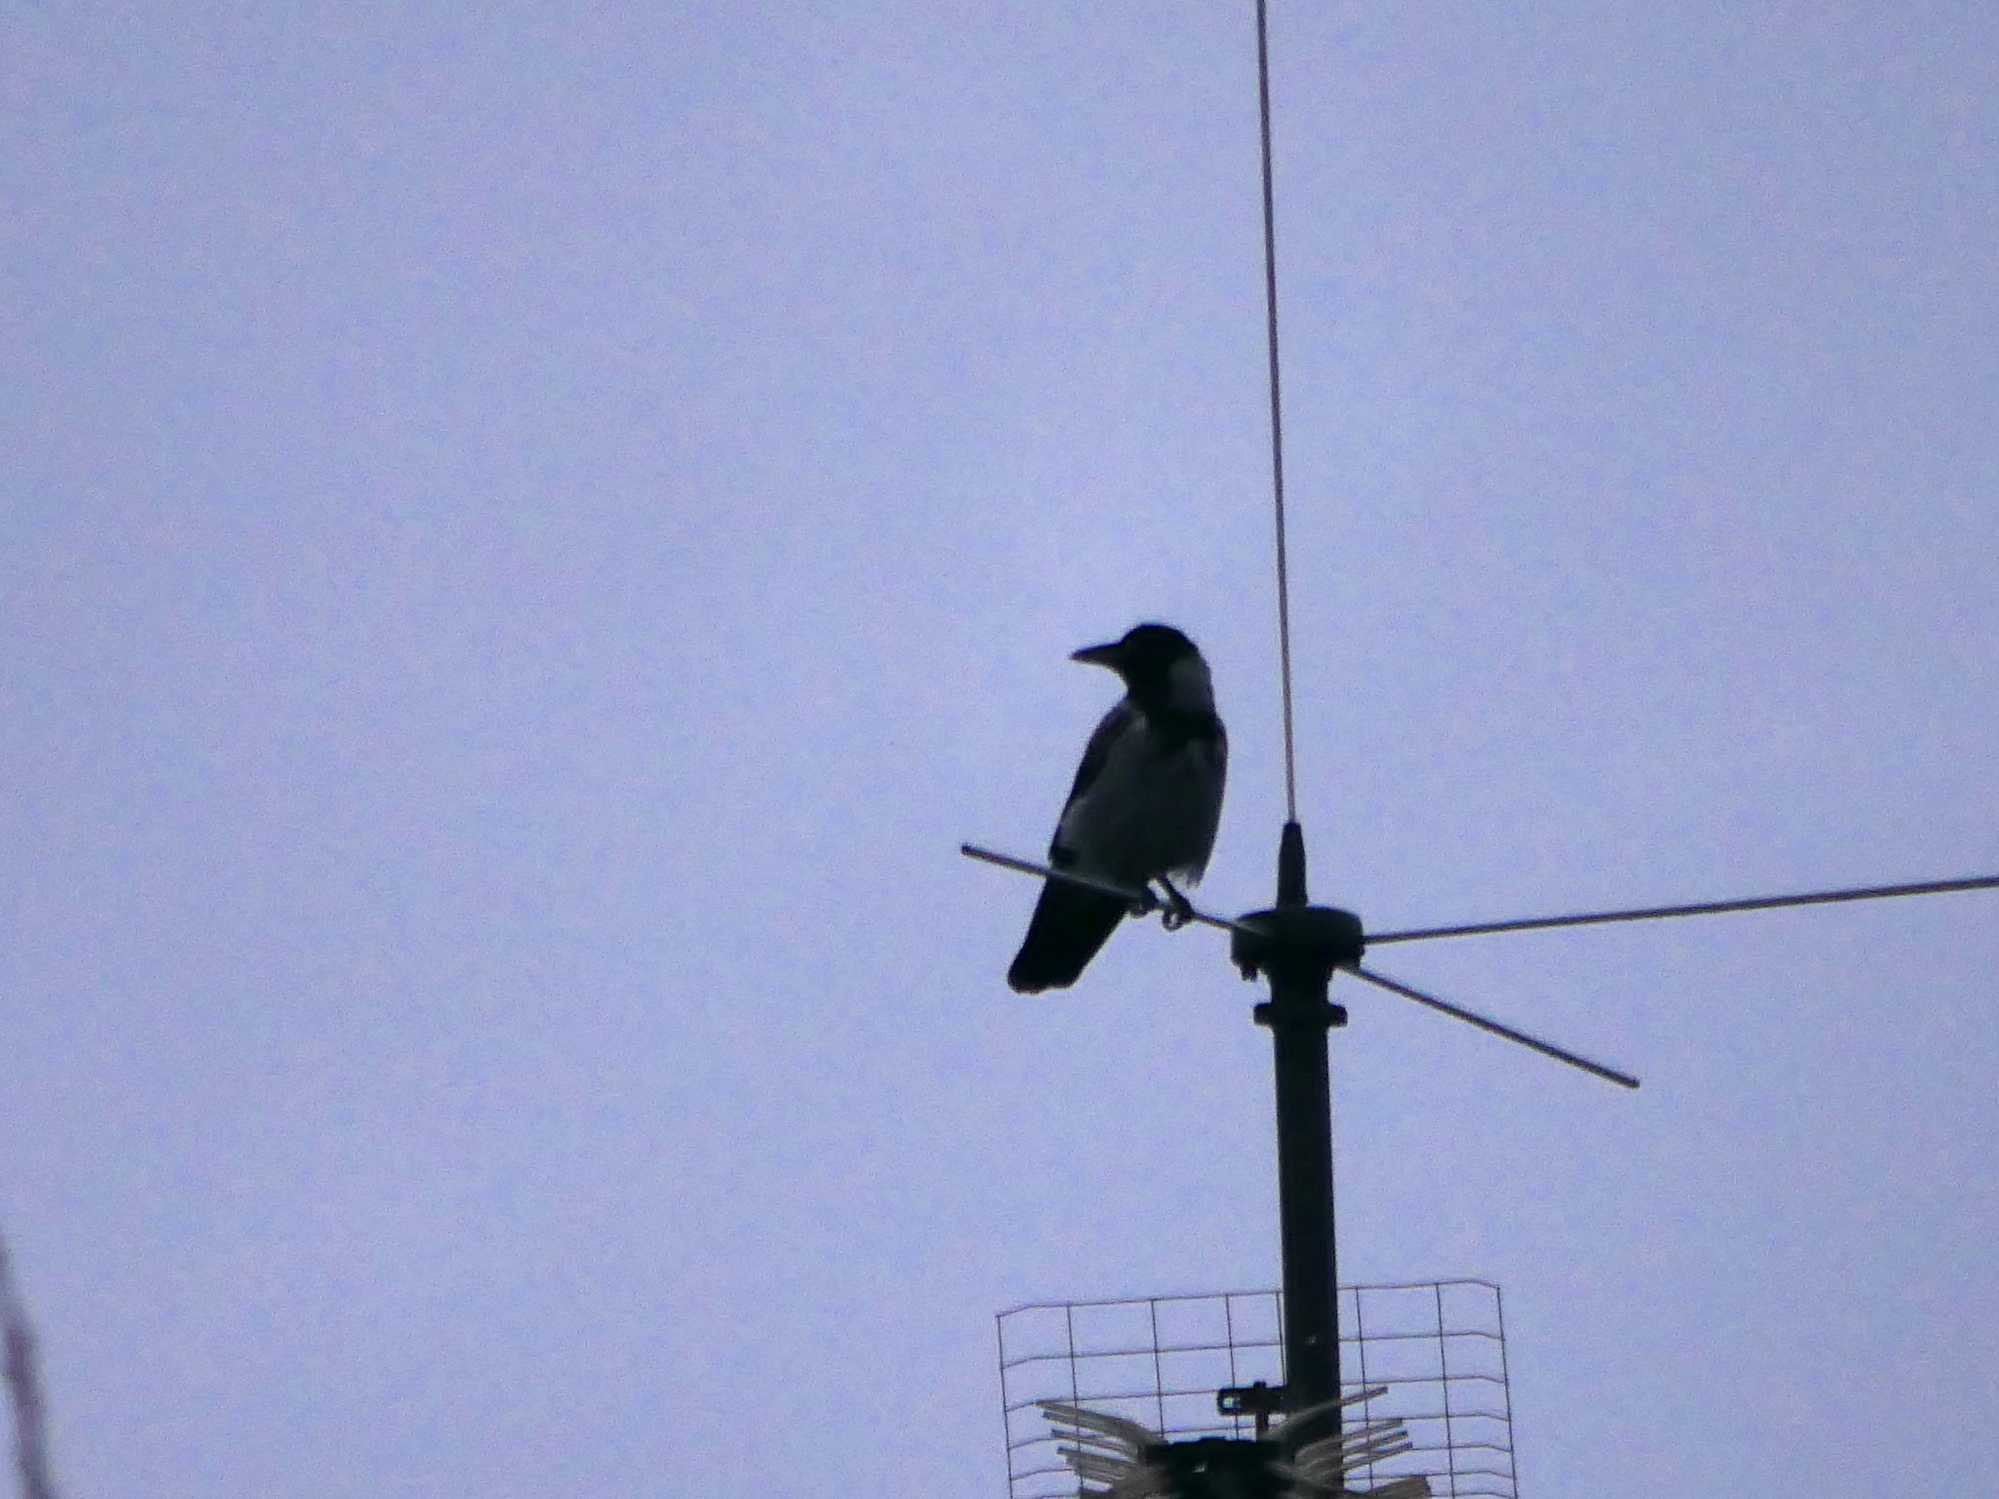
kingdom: Animalia
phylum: Chordata
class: Aves
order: Passeriformes
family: Corvidae
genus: Corvus
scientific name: Corvus cornix
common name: Hooded crow
